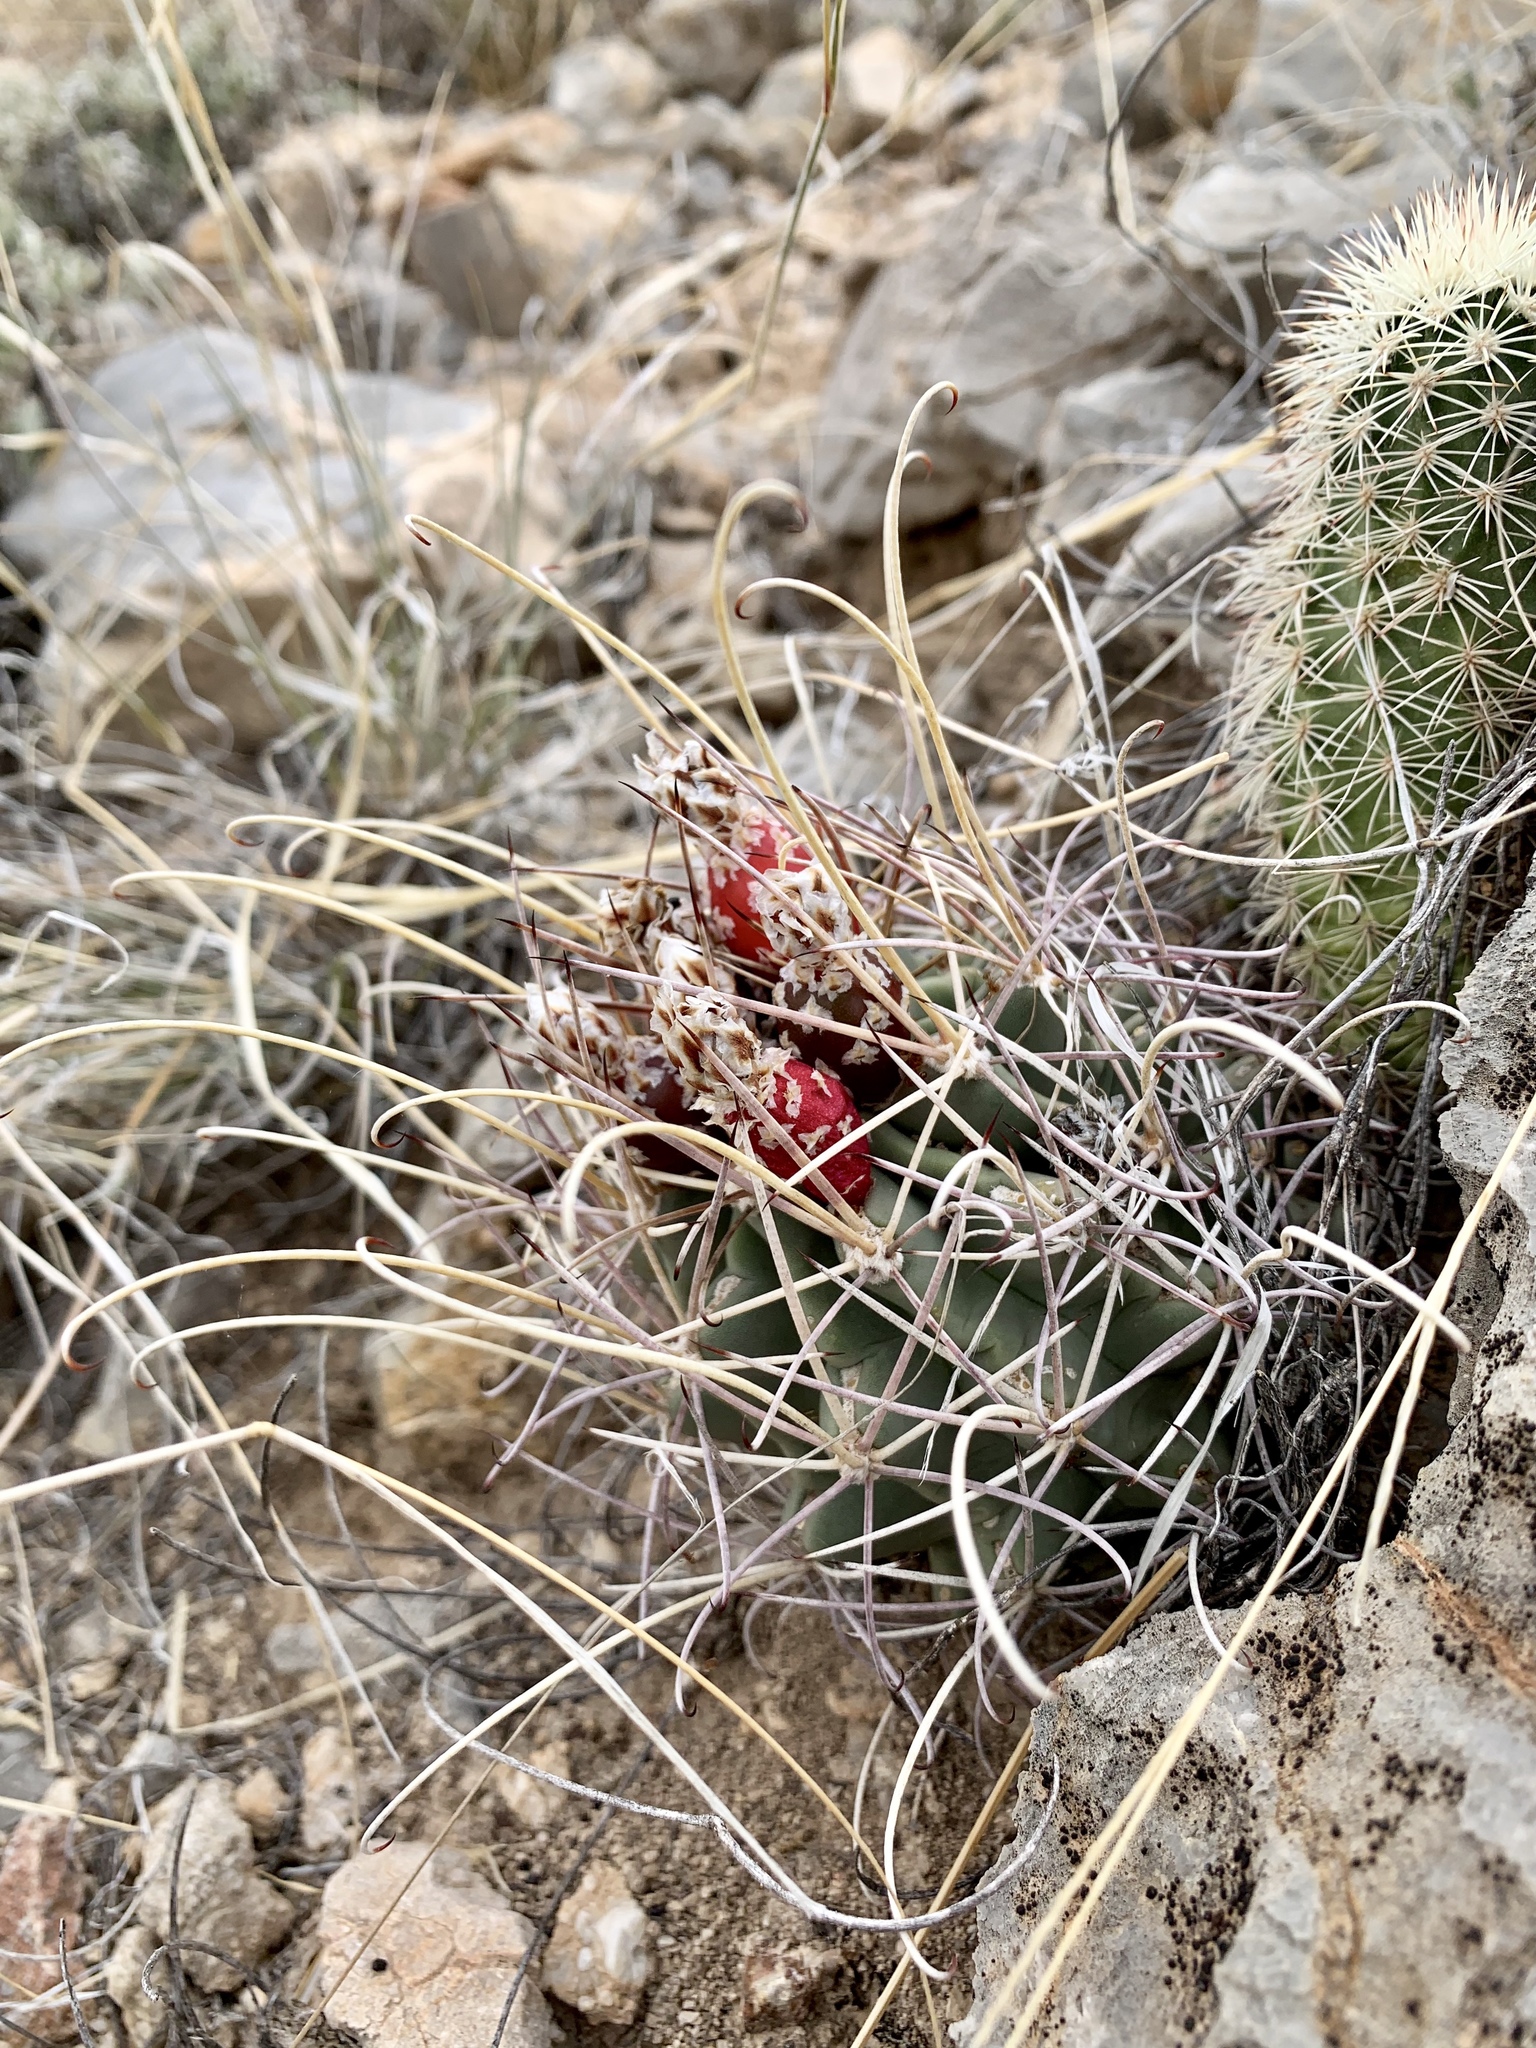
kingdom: Plantae
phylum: Tracheophyta
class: Magnoliopsida
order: Caryophyllales
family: Cactaceae
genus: Ferocactus
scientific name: Ferocactus uncinatus
